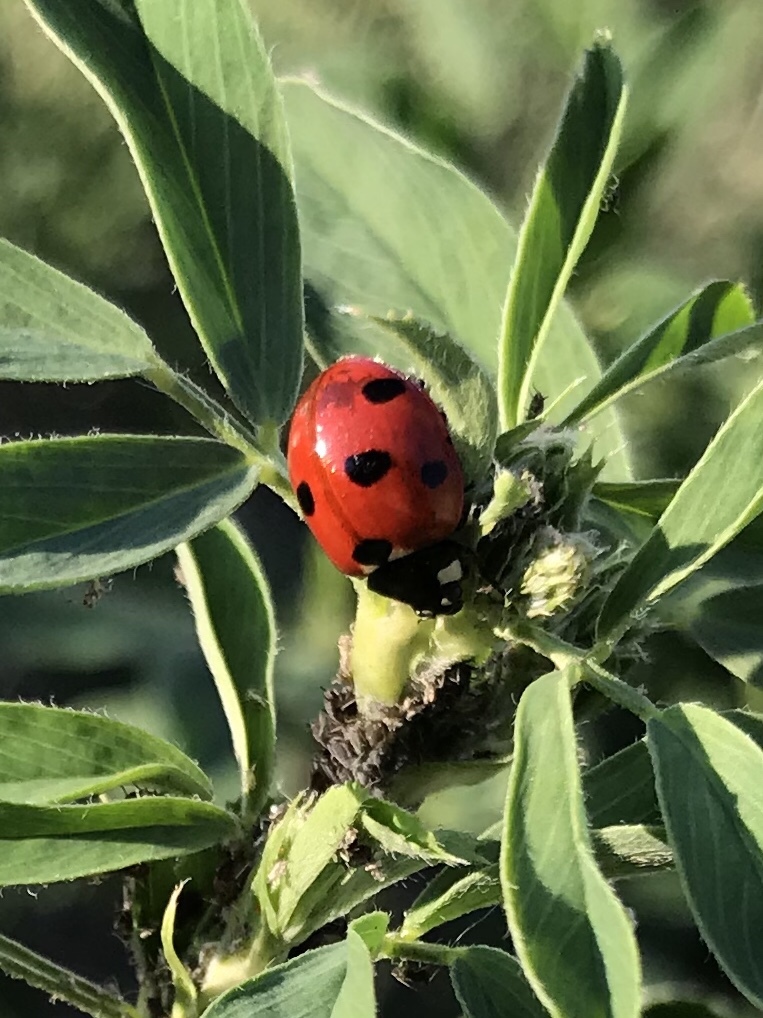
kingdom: Animalia
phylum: Arthropoda
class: Insecta
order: Coleoptera
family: Coccinellidae
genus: Coccinella
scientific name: Coccinella septempunctata
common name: Sevenspotted lady beetle
